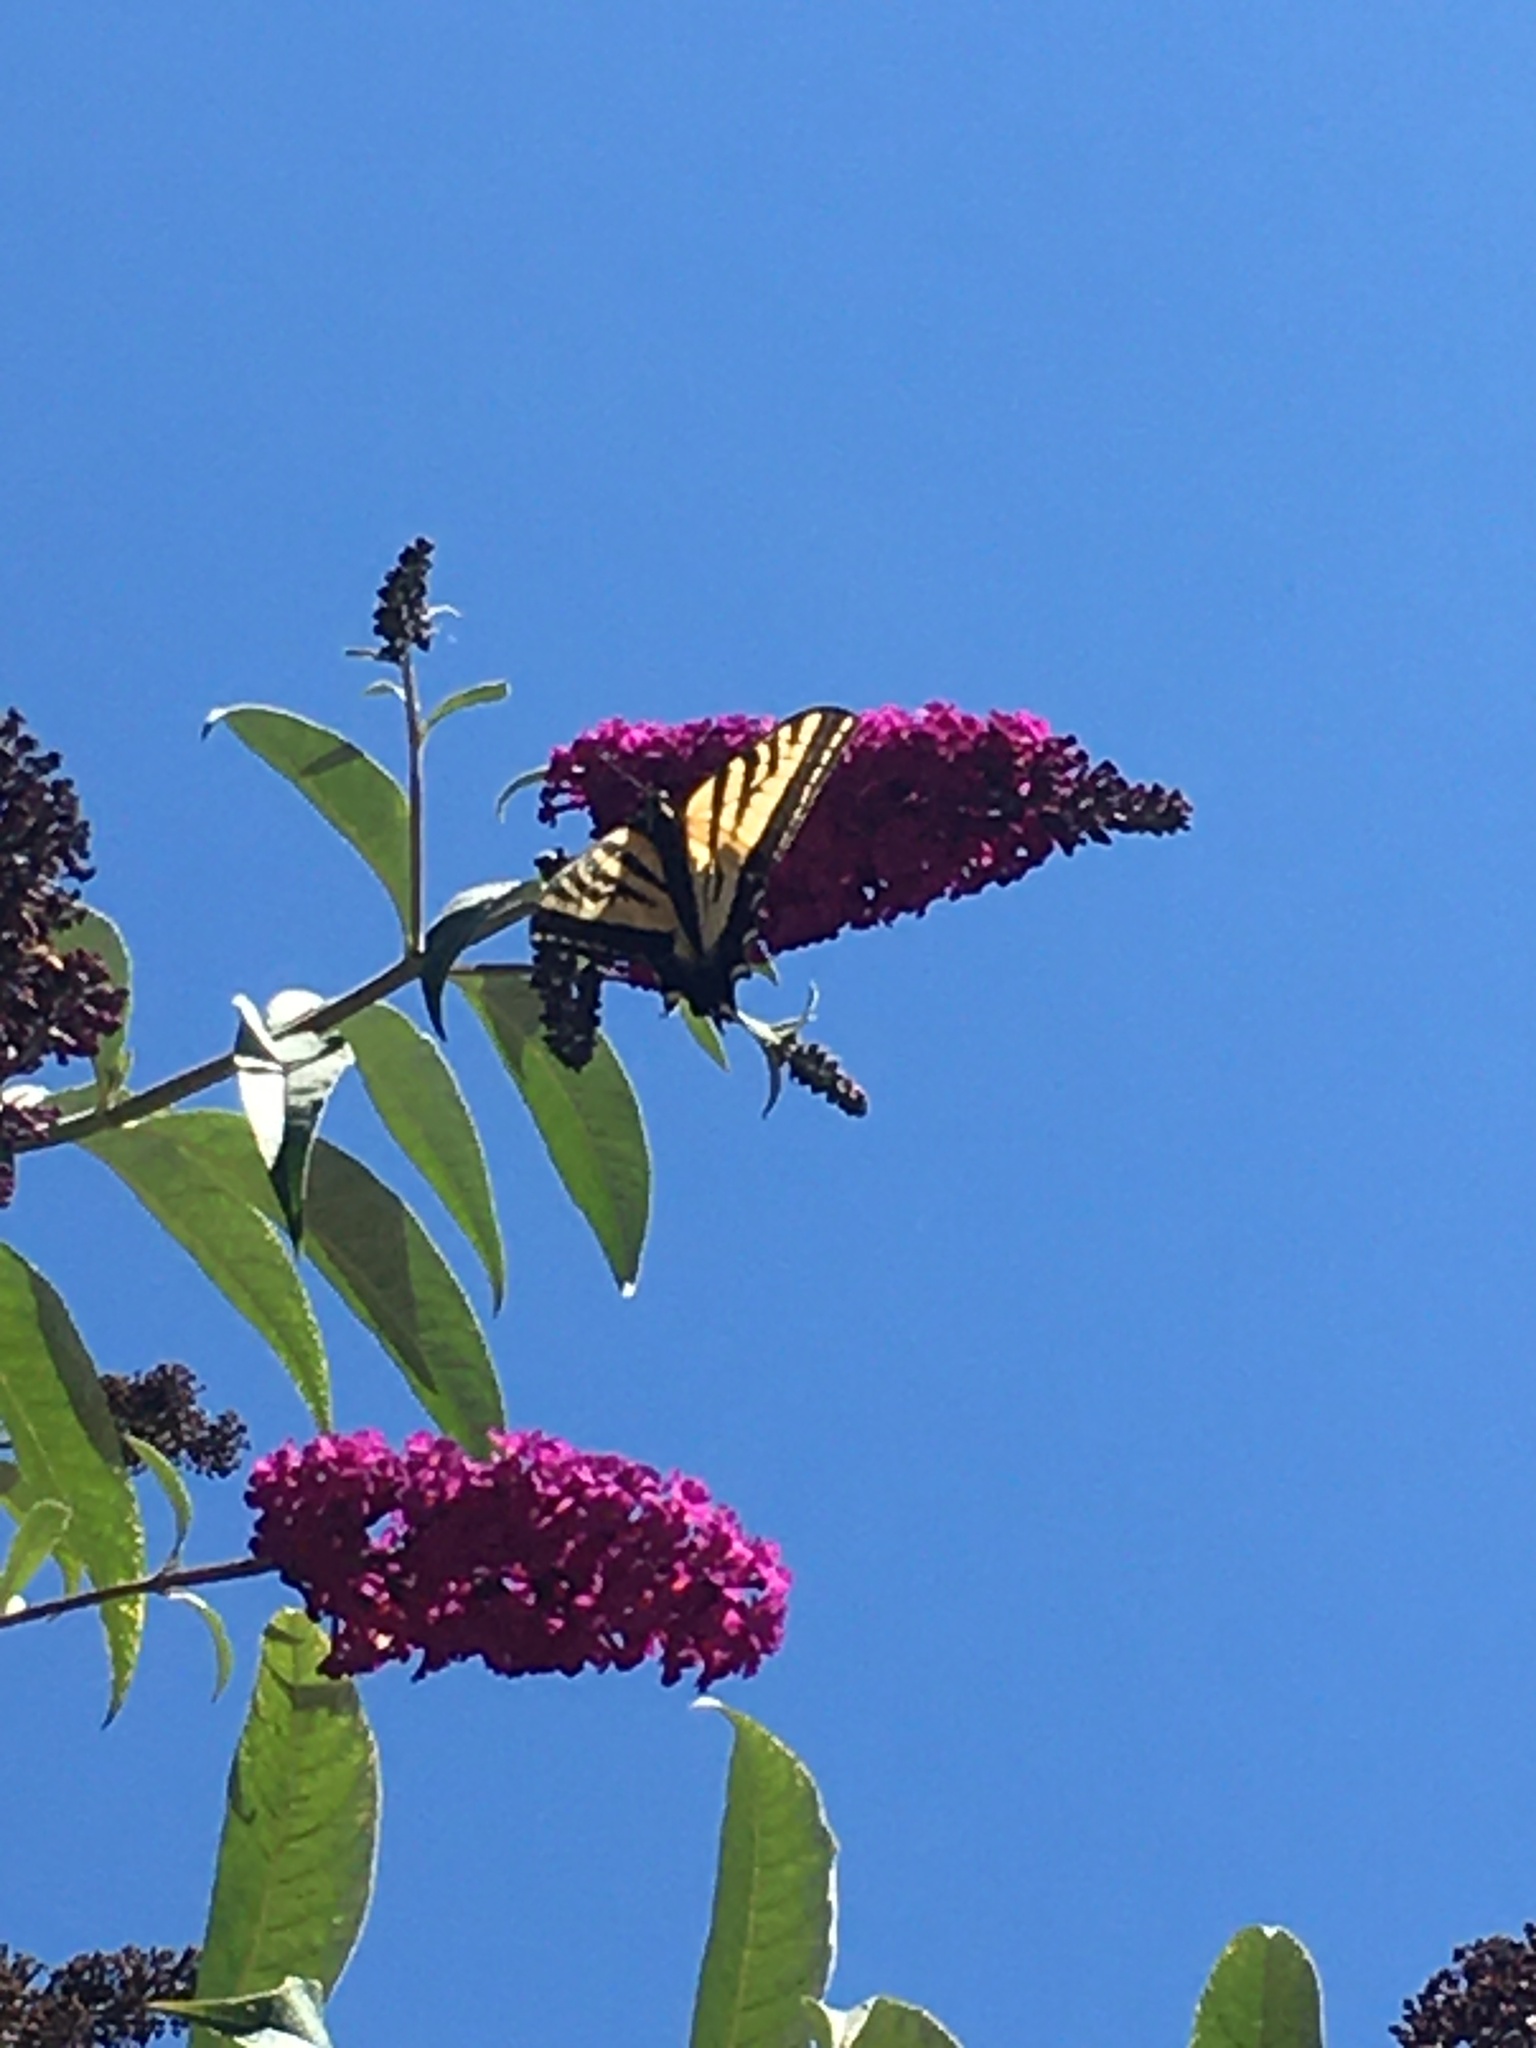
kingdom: Animalia
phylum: Arthropoda
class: Insecta
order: Lepidoptera
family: Papilionidae
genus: Papilio
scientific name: Papilio rutulus
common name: Western tiger swallowtail
